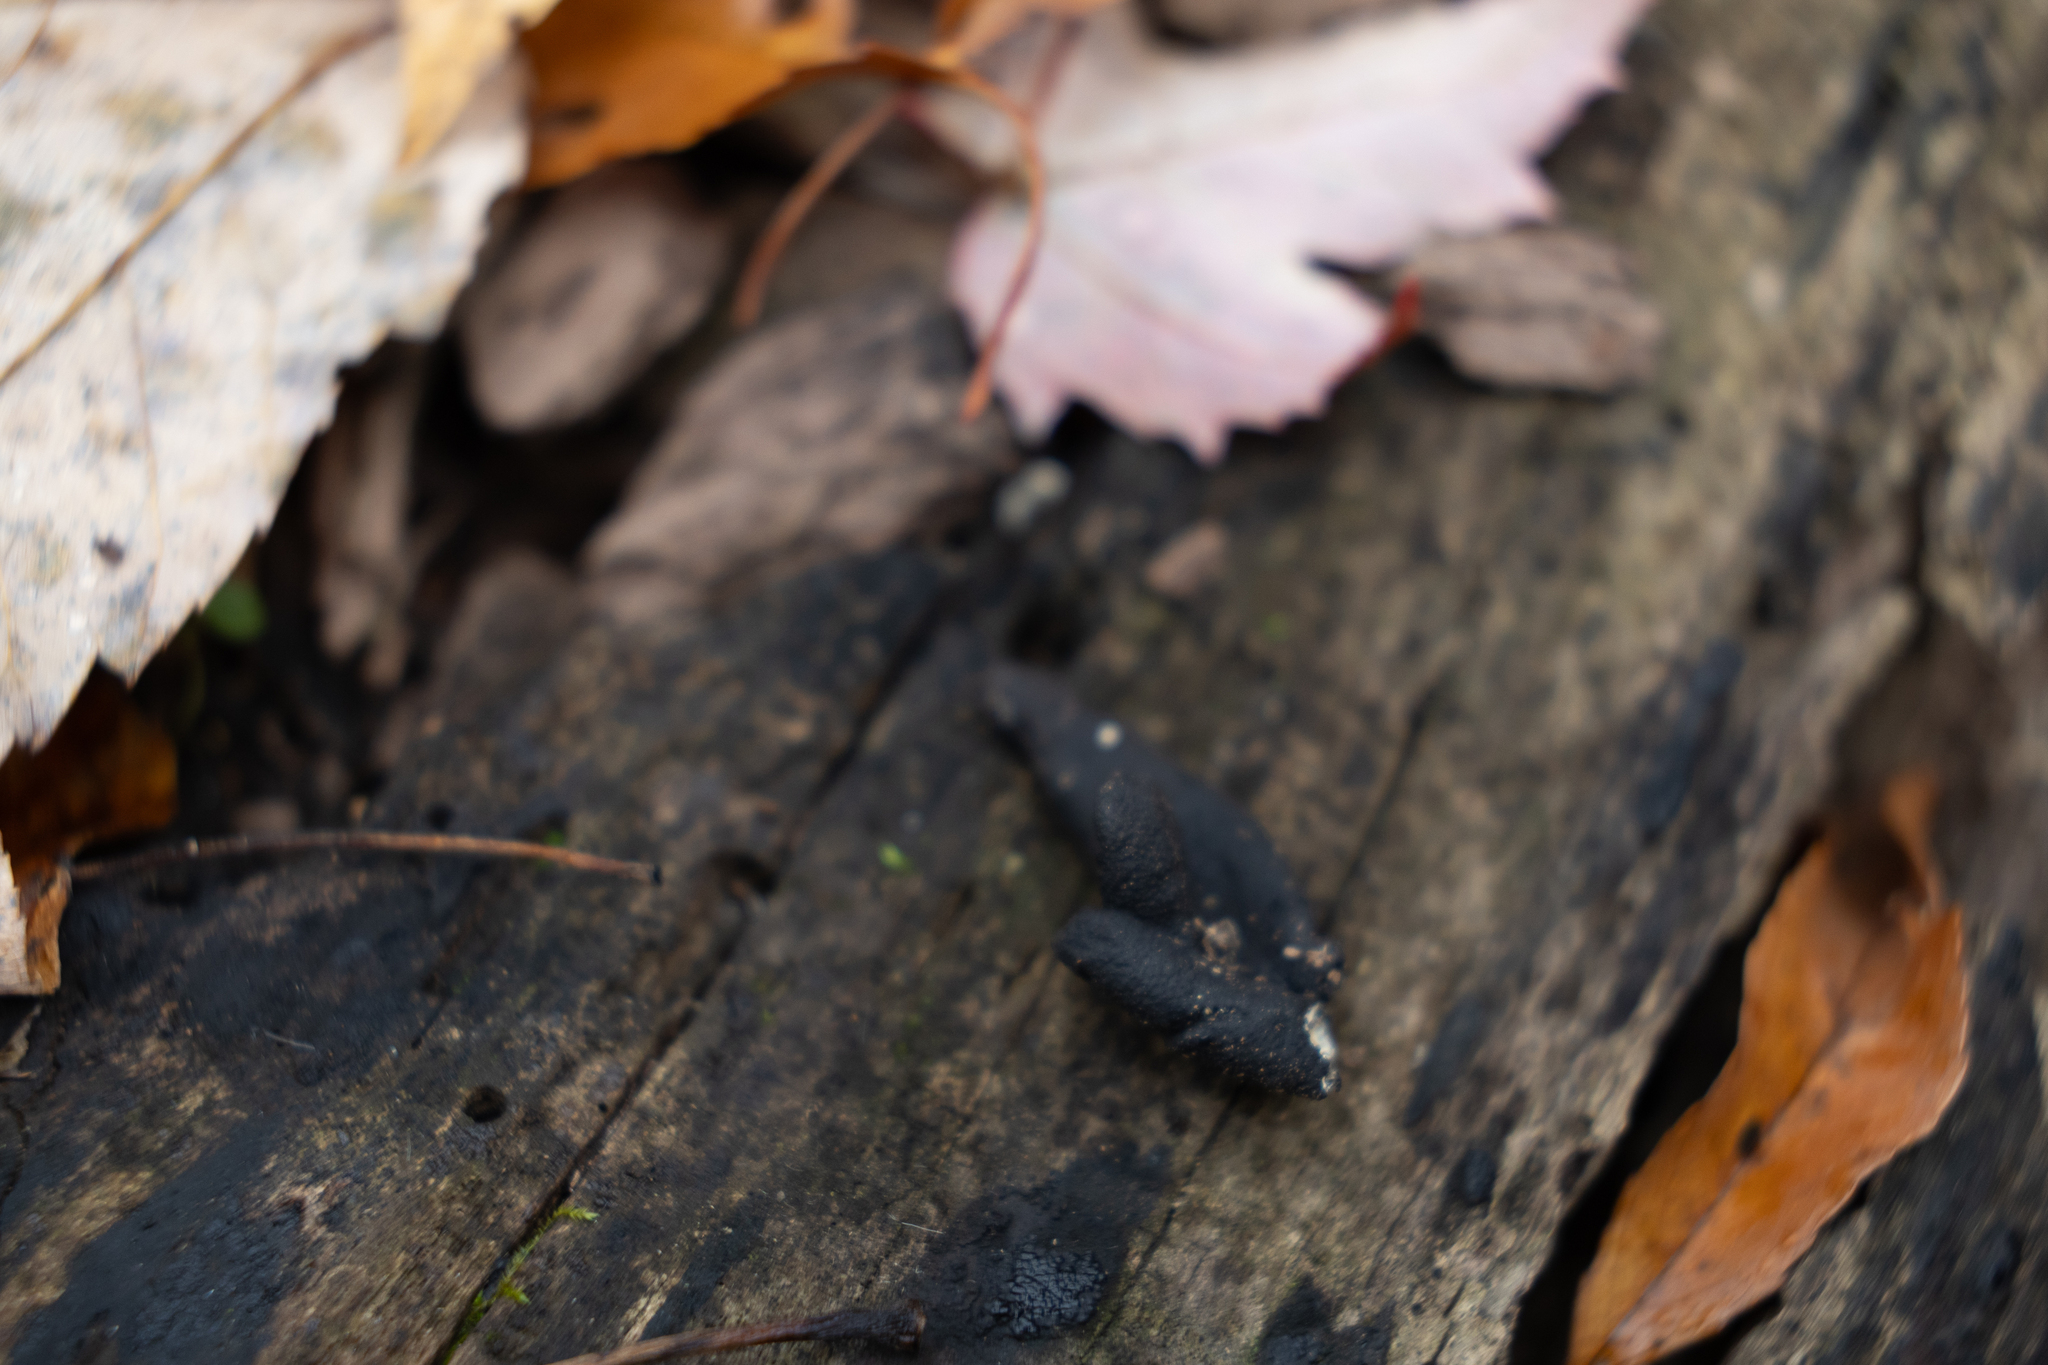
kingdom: Fungi
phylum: Ascomycota
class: Sordariomycetes
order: Xylariales
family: Xylariaceae
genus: Xylaria
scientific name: Xylaria longipes
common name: Dead moll's fingers
